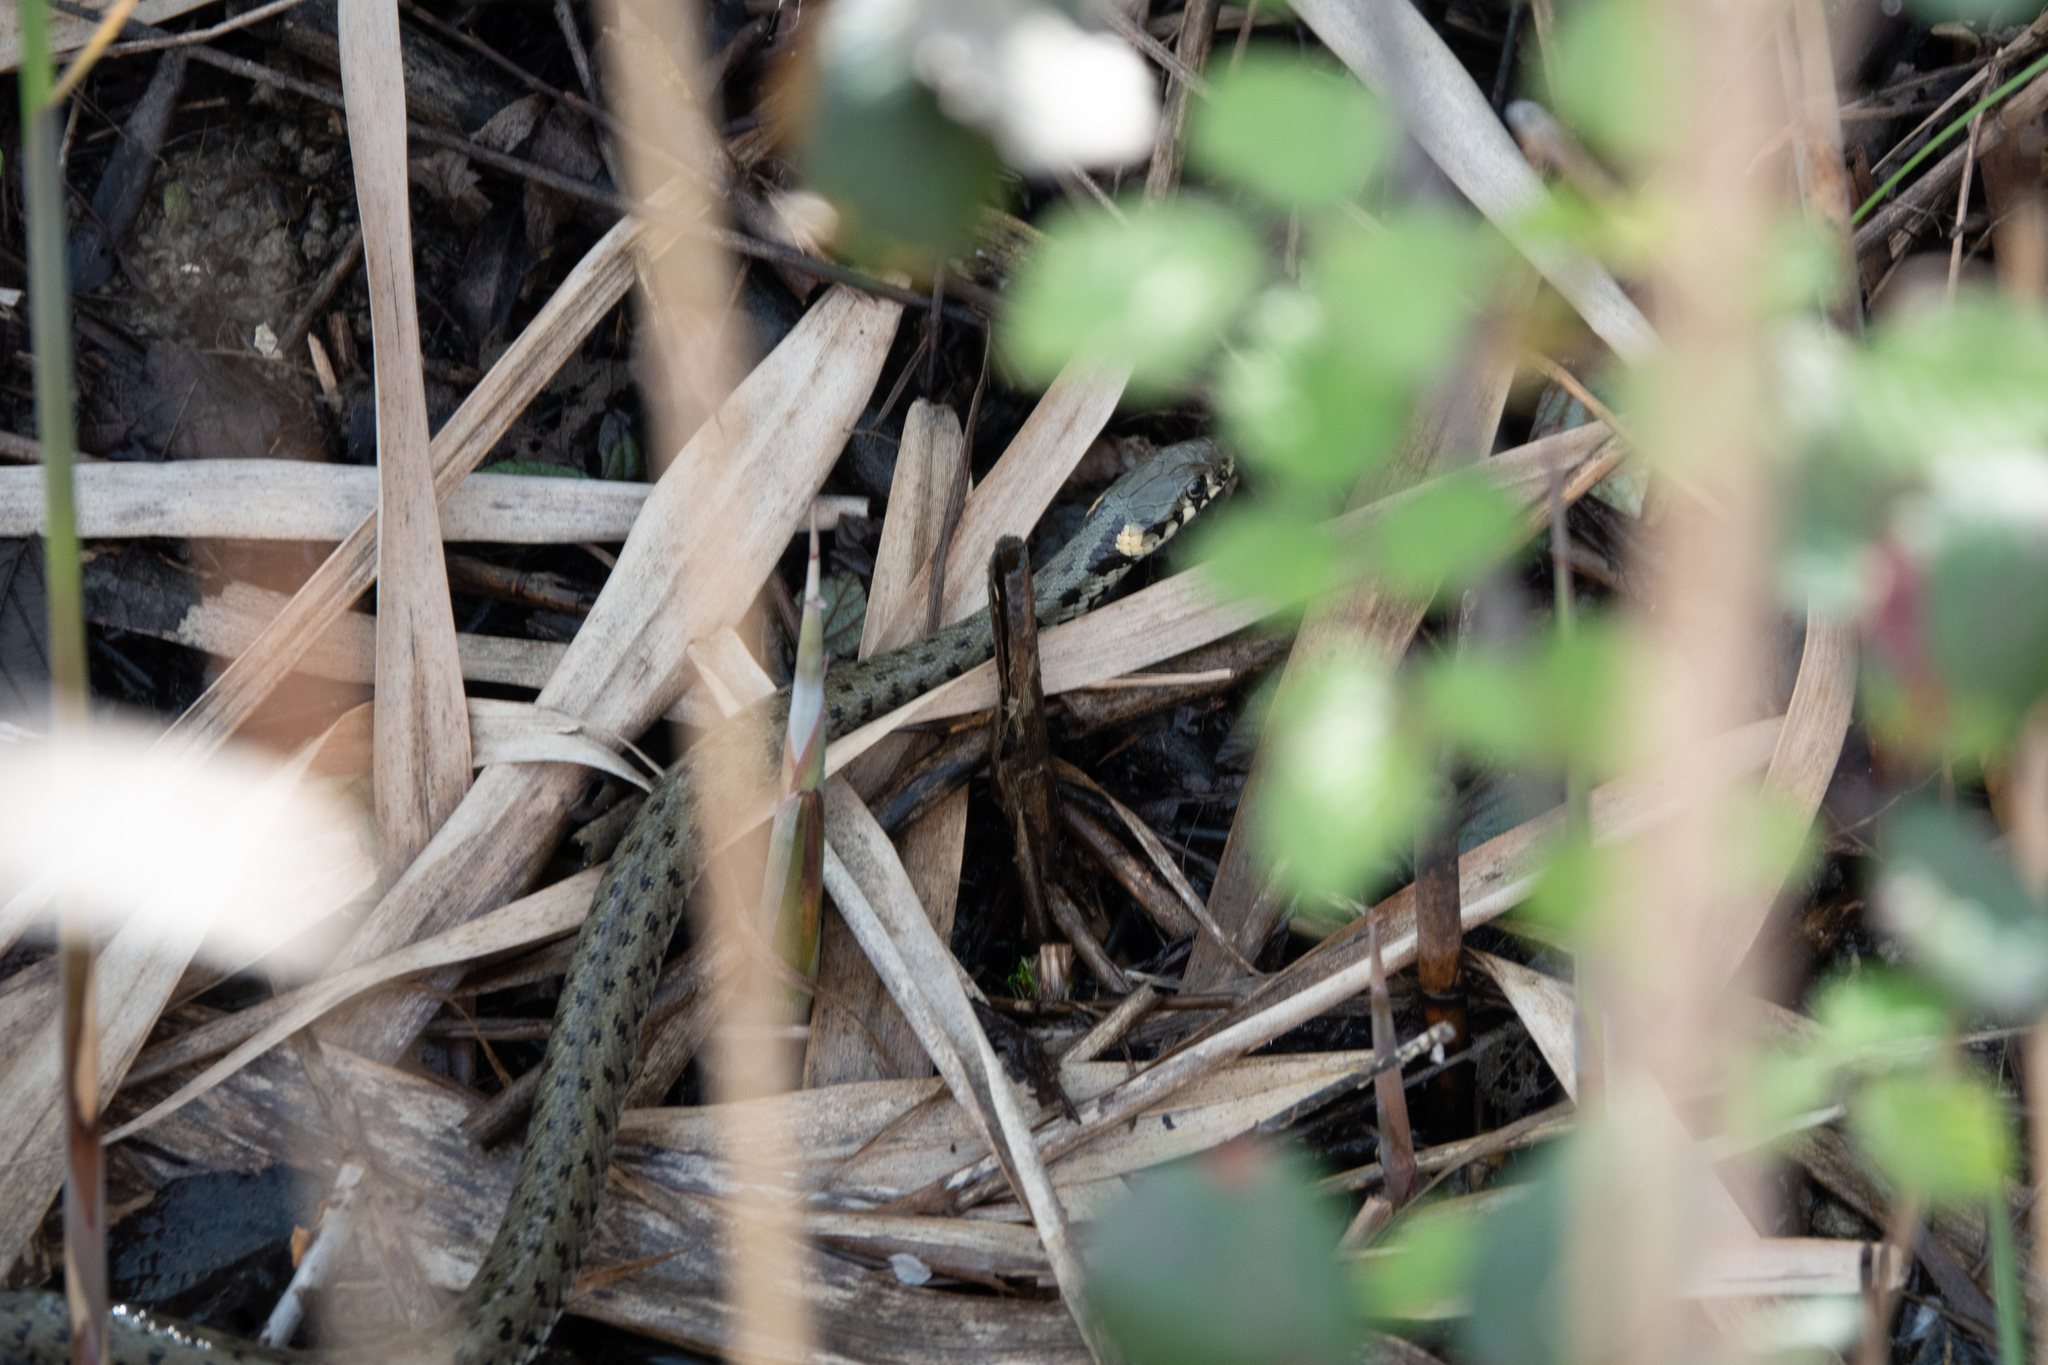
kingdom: Animalia
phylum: Chordata
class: Squamata
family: Colubridae
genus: Natrix
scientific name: Natrix natrix
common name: Grass snake
